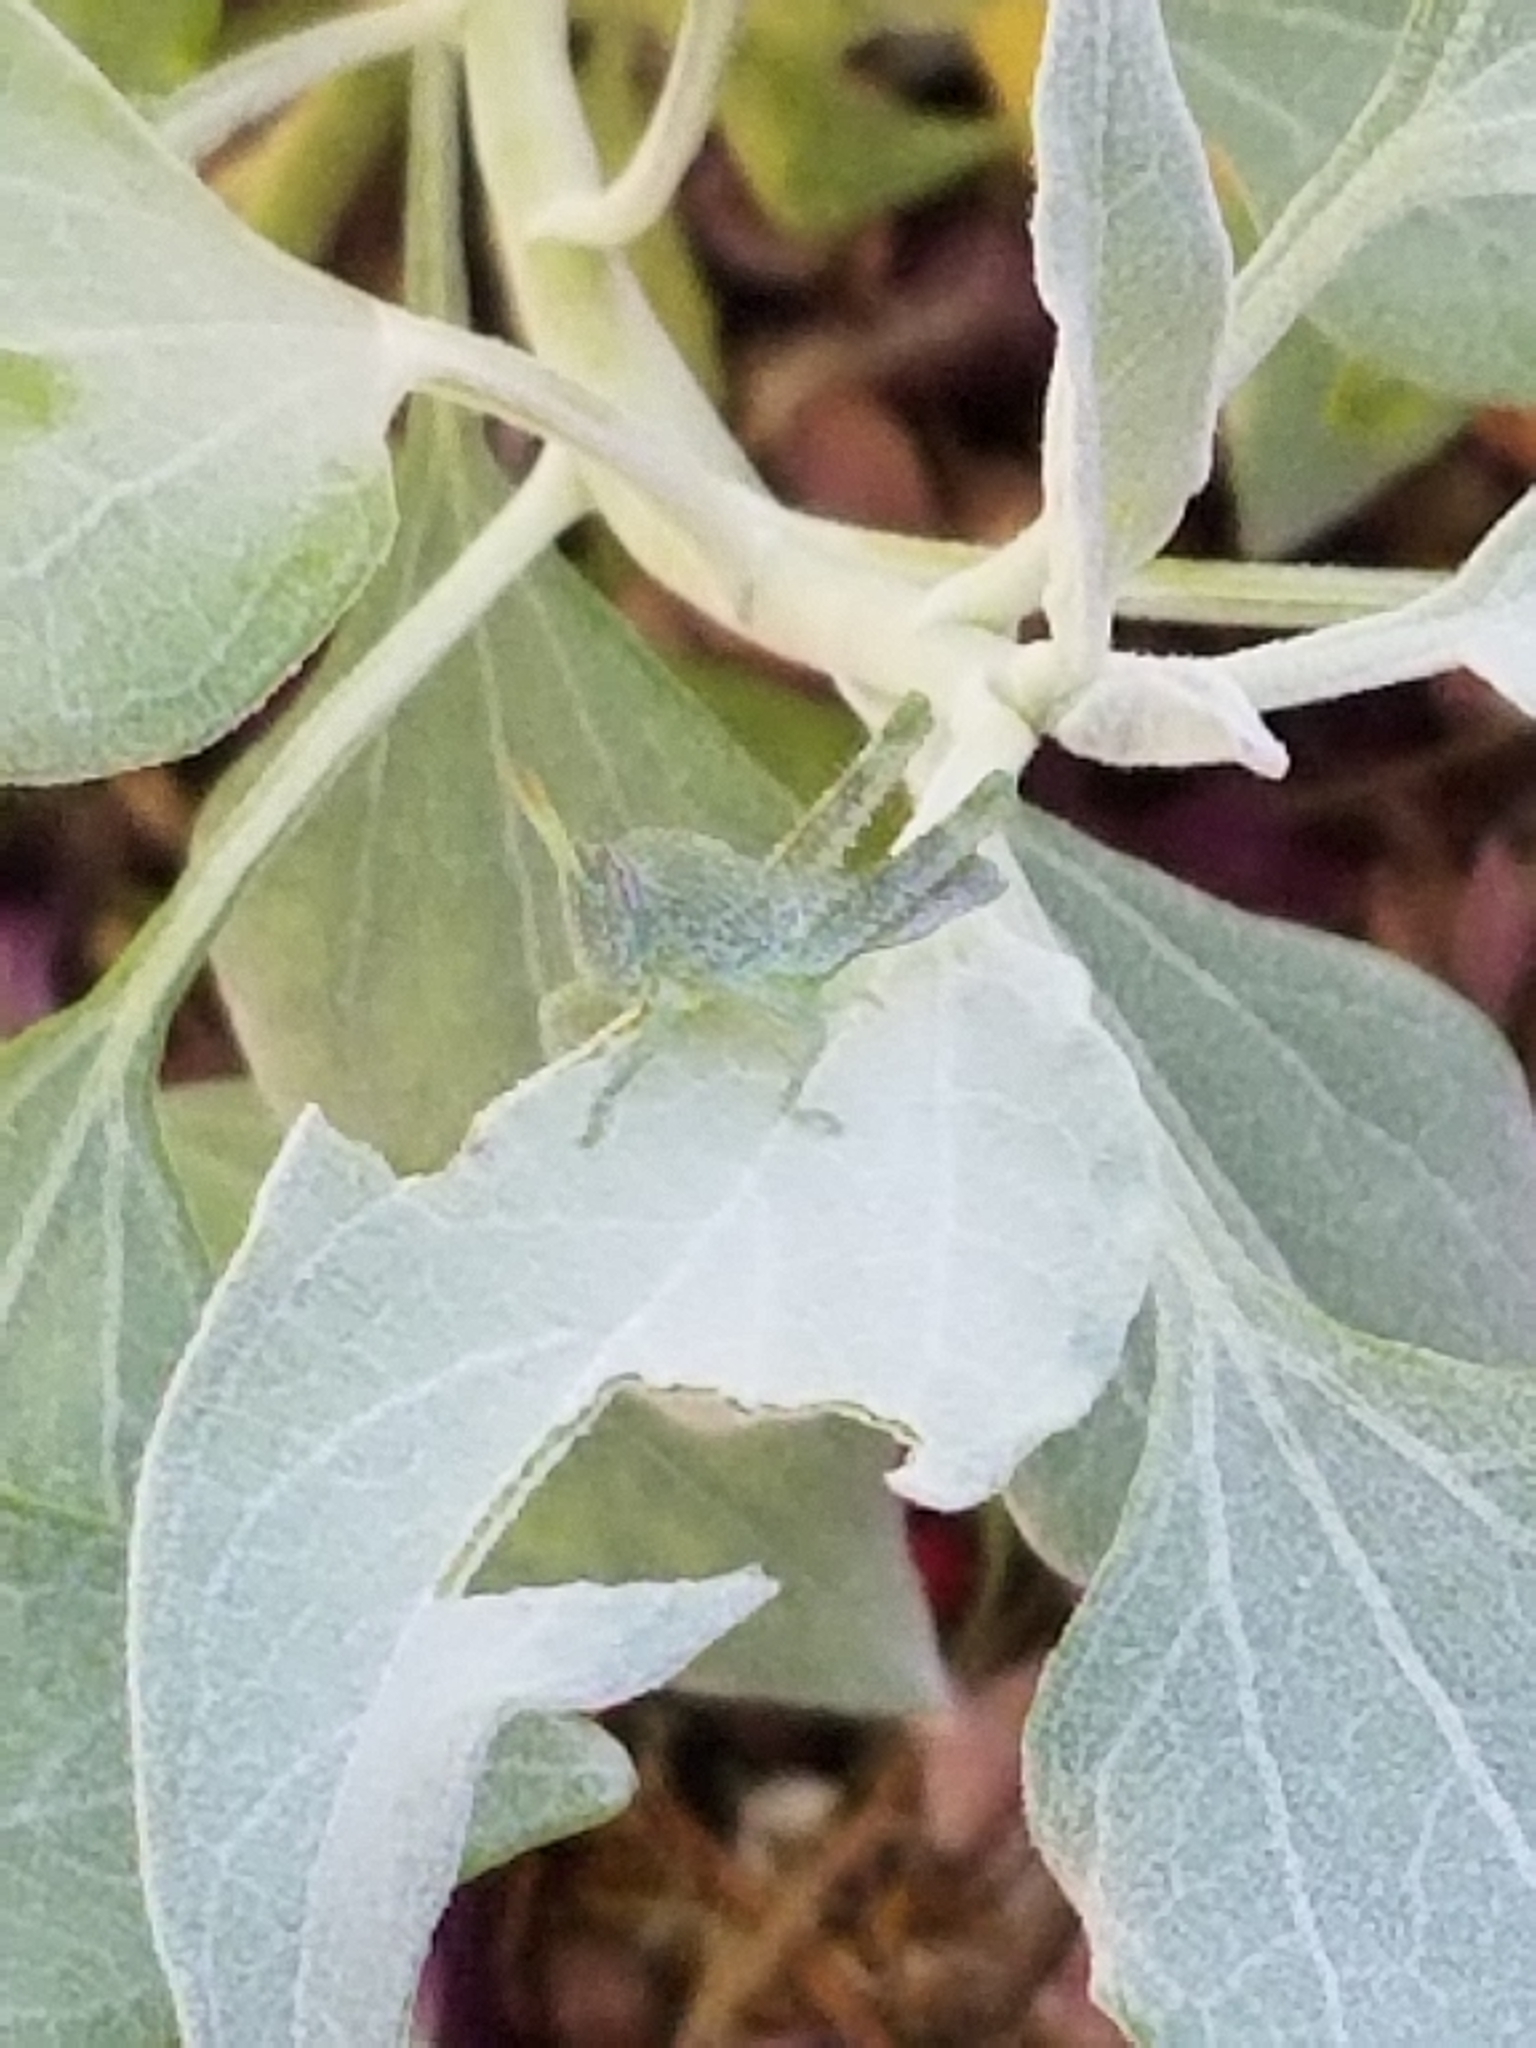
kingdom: Animalia
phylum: Arthropoda
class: Insecta
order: Orthoptera
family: Acrididae
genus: Schistocerca
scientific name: Schistocerca nitens
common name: Vagrant grasshopper
